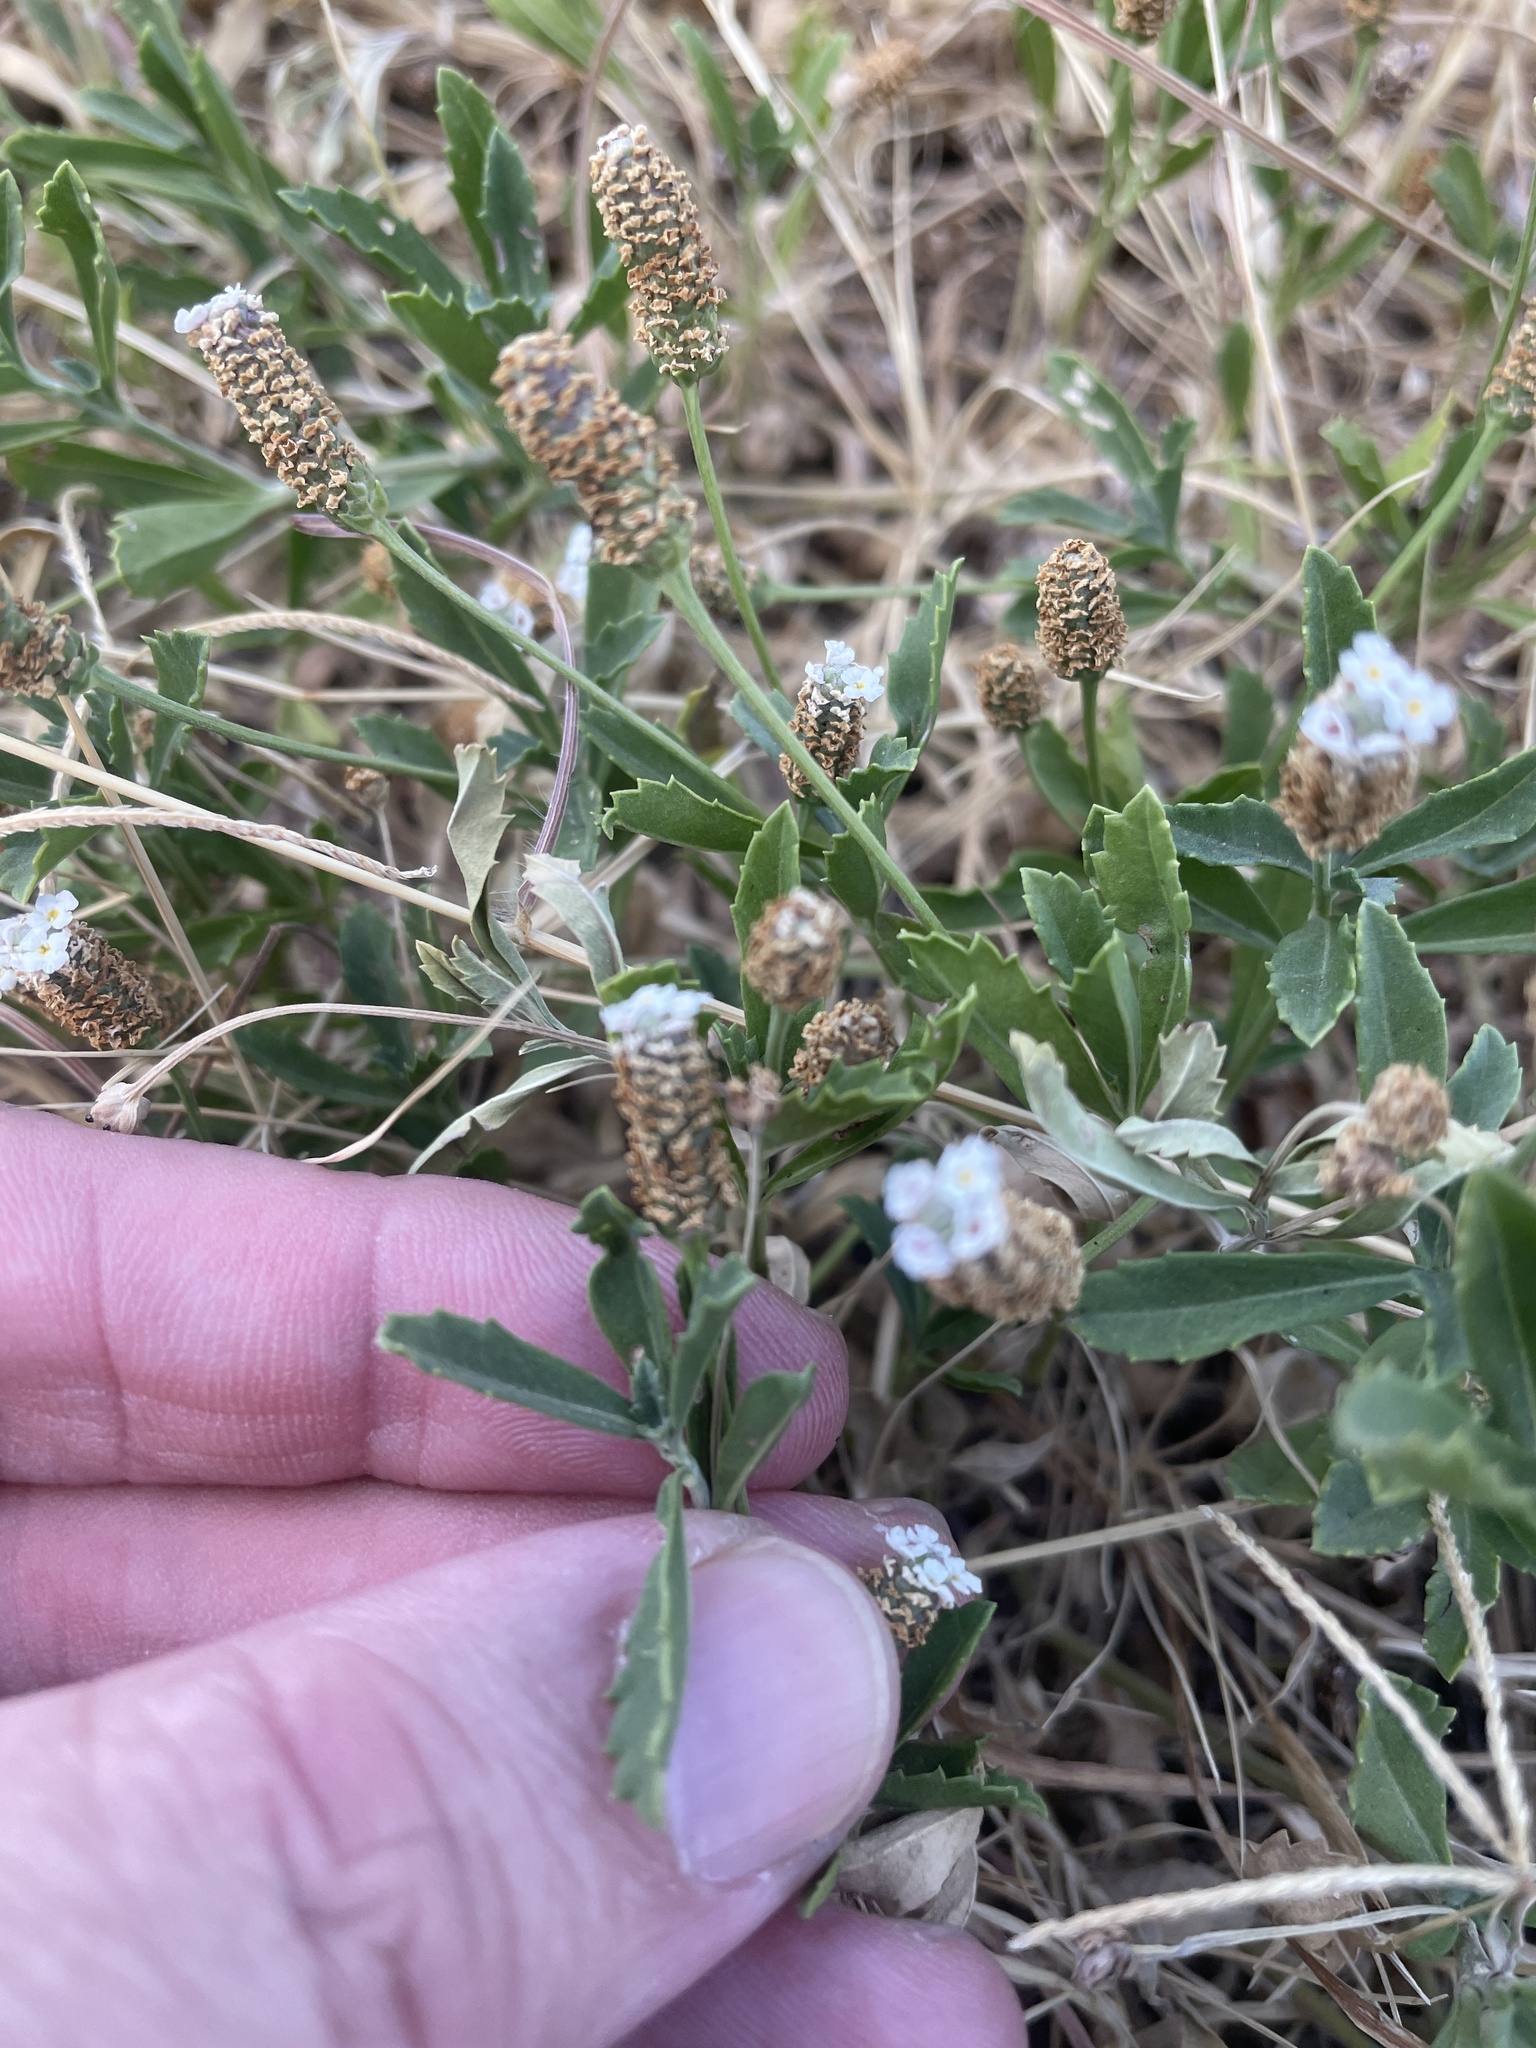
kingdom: Plantae
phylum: Tracheophyta
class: Magnoliopsida
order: Lamiales
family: Verbenaceae
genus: Phyla
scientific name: Phyla nodiflora
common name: Frogfruit
